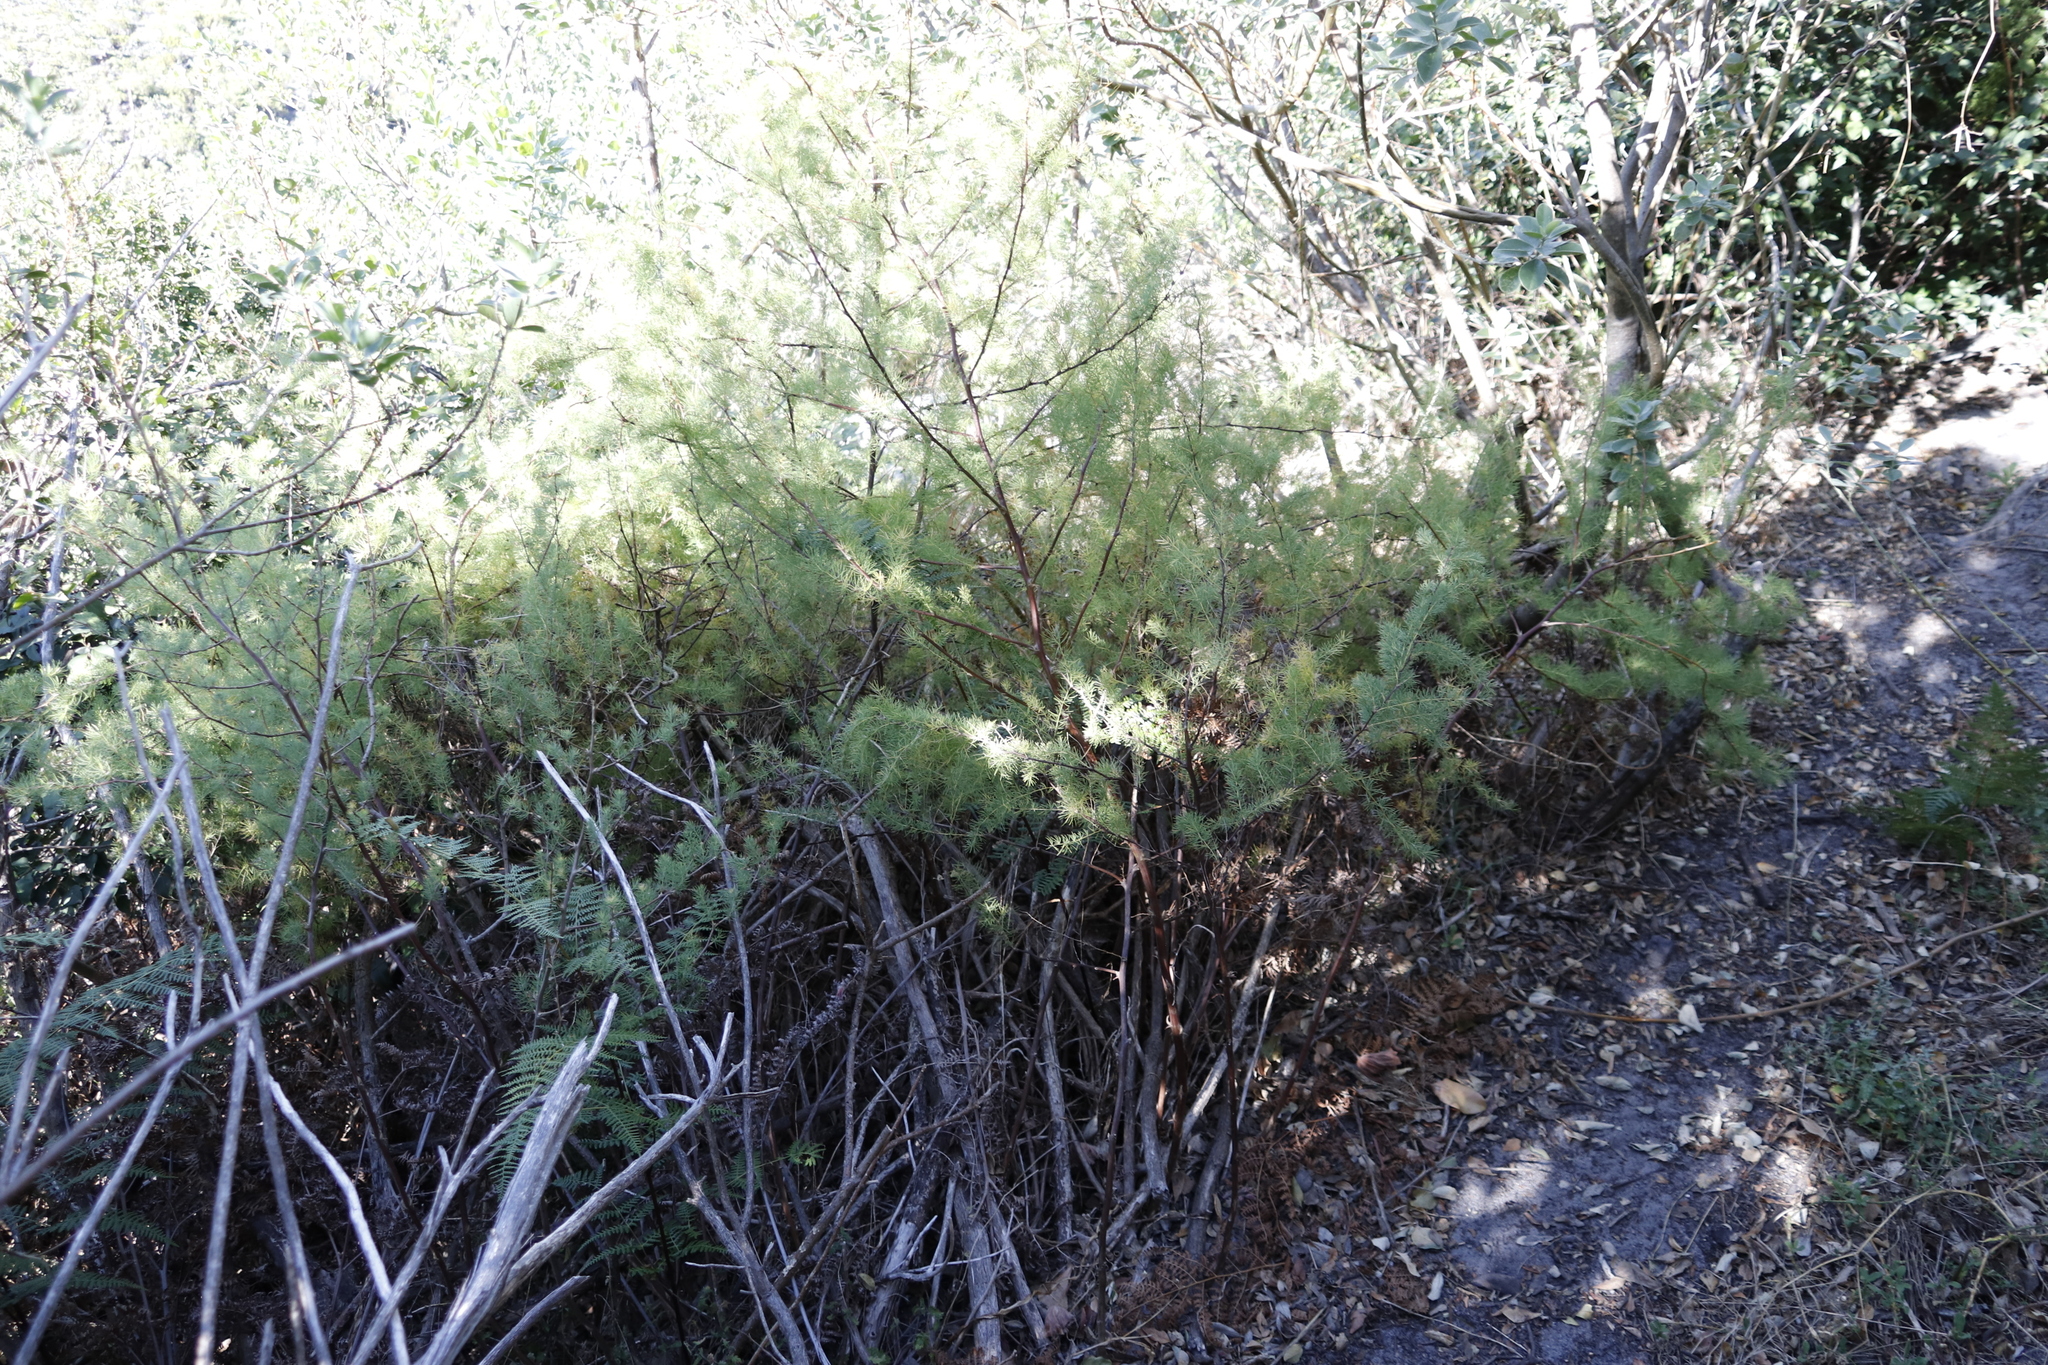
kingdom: Plantae
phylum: Tracheophyta
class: Liliopsida
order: Asparagales
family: Asparagaceae
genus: Asparagus
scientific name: Asparagus rubicundus
